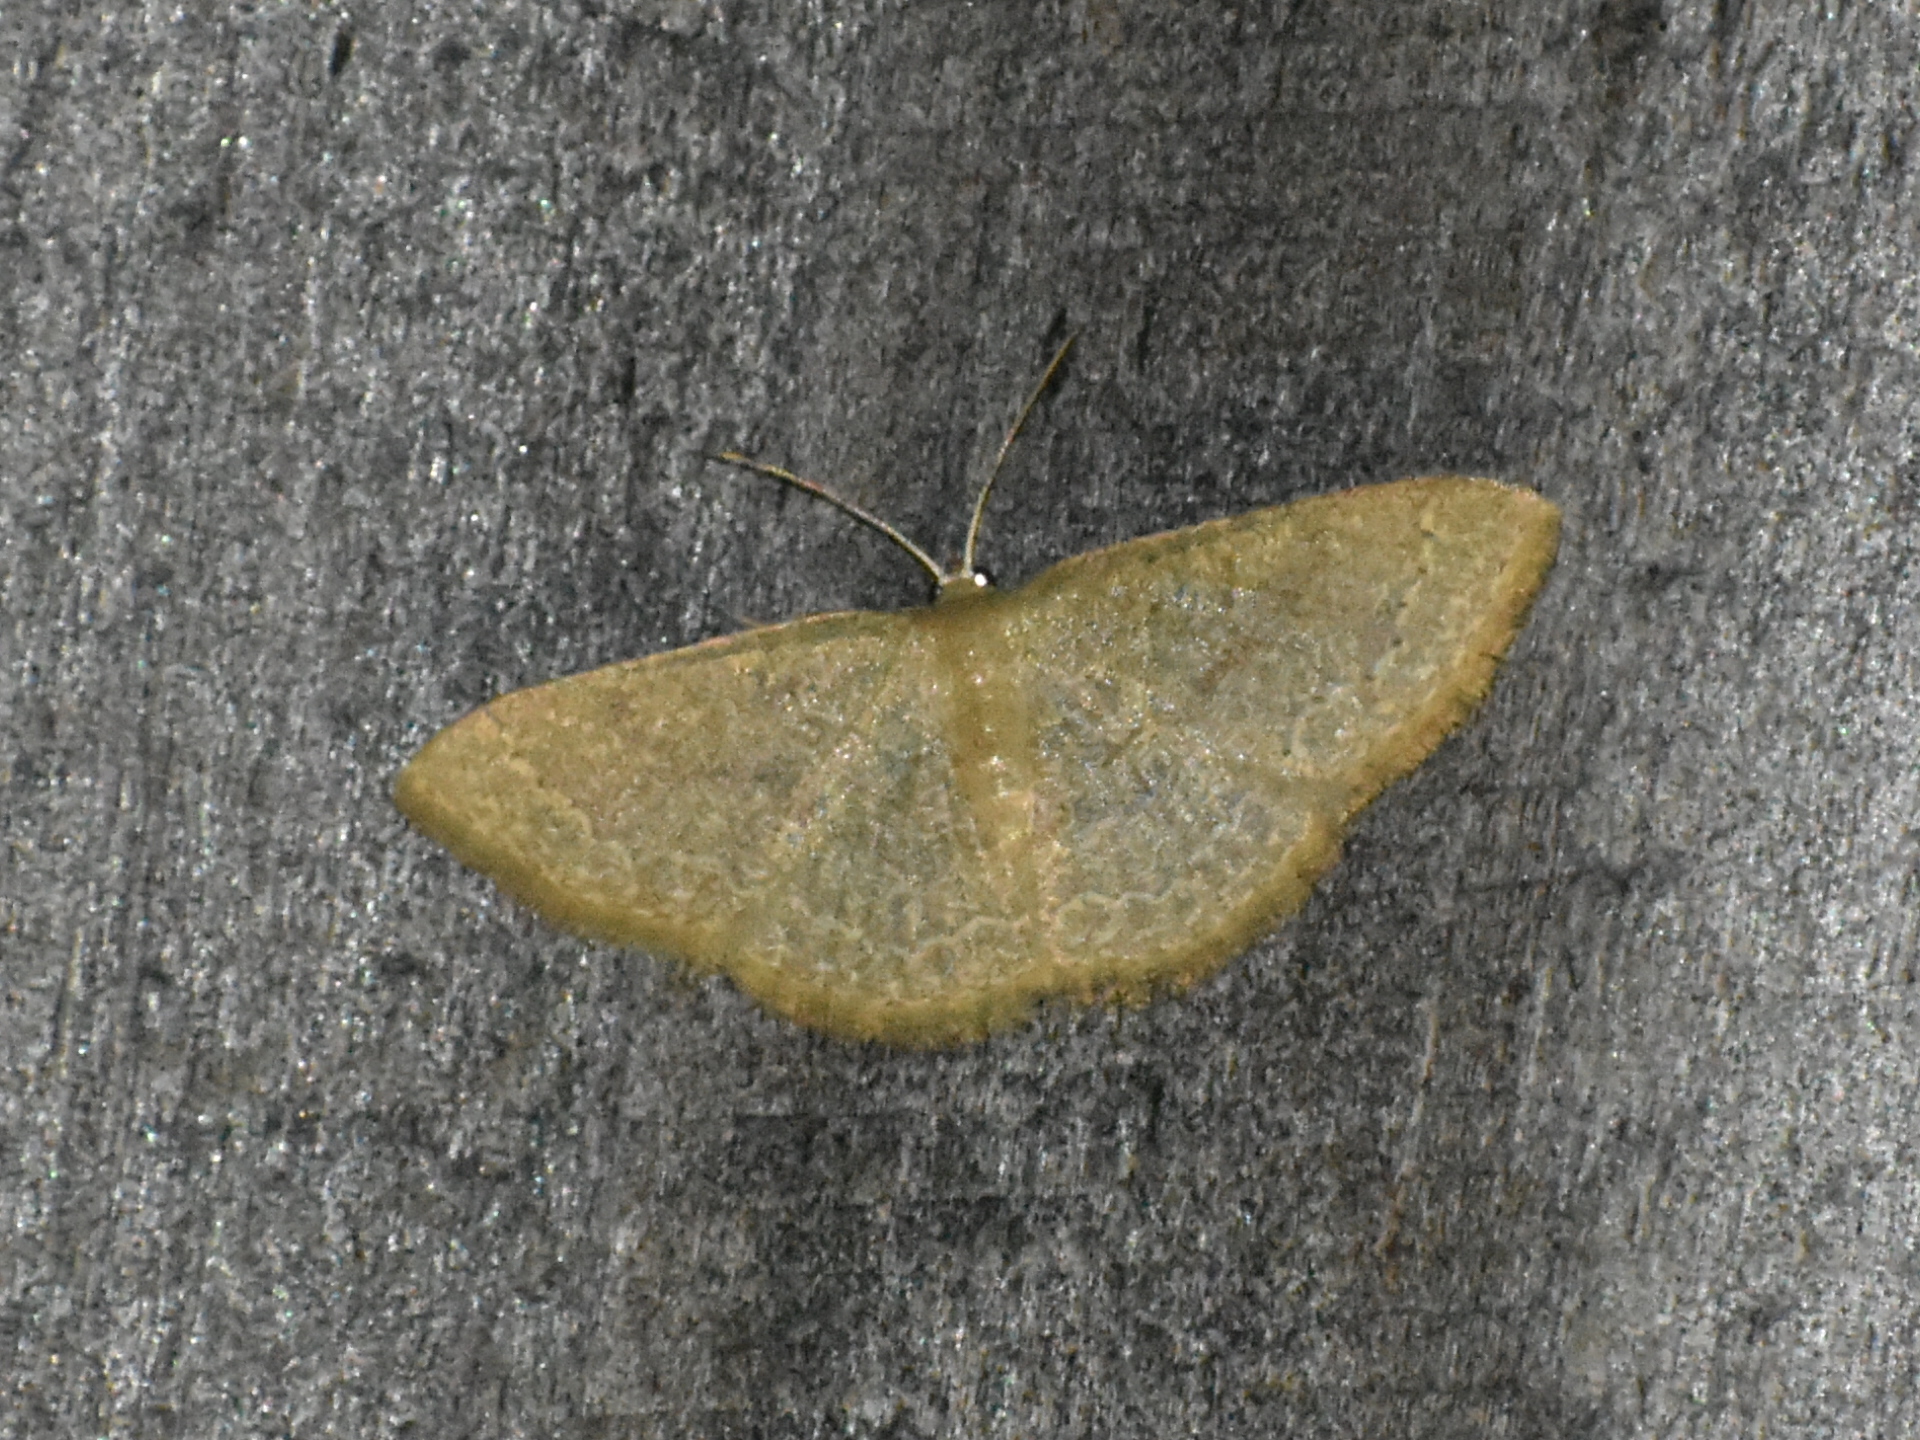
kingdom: Animalia
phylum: Arthropoda
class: Insecta
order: Lepidoptera
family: Geometridae
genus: Pleuroprucha
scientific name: Pleuroprucha insulsaria
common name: Common tan wave
